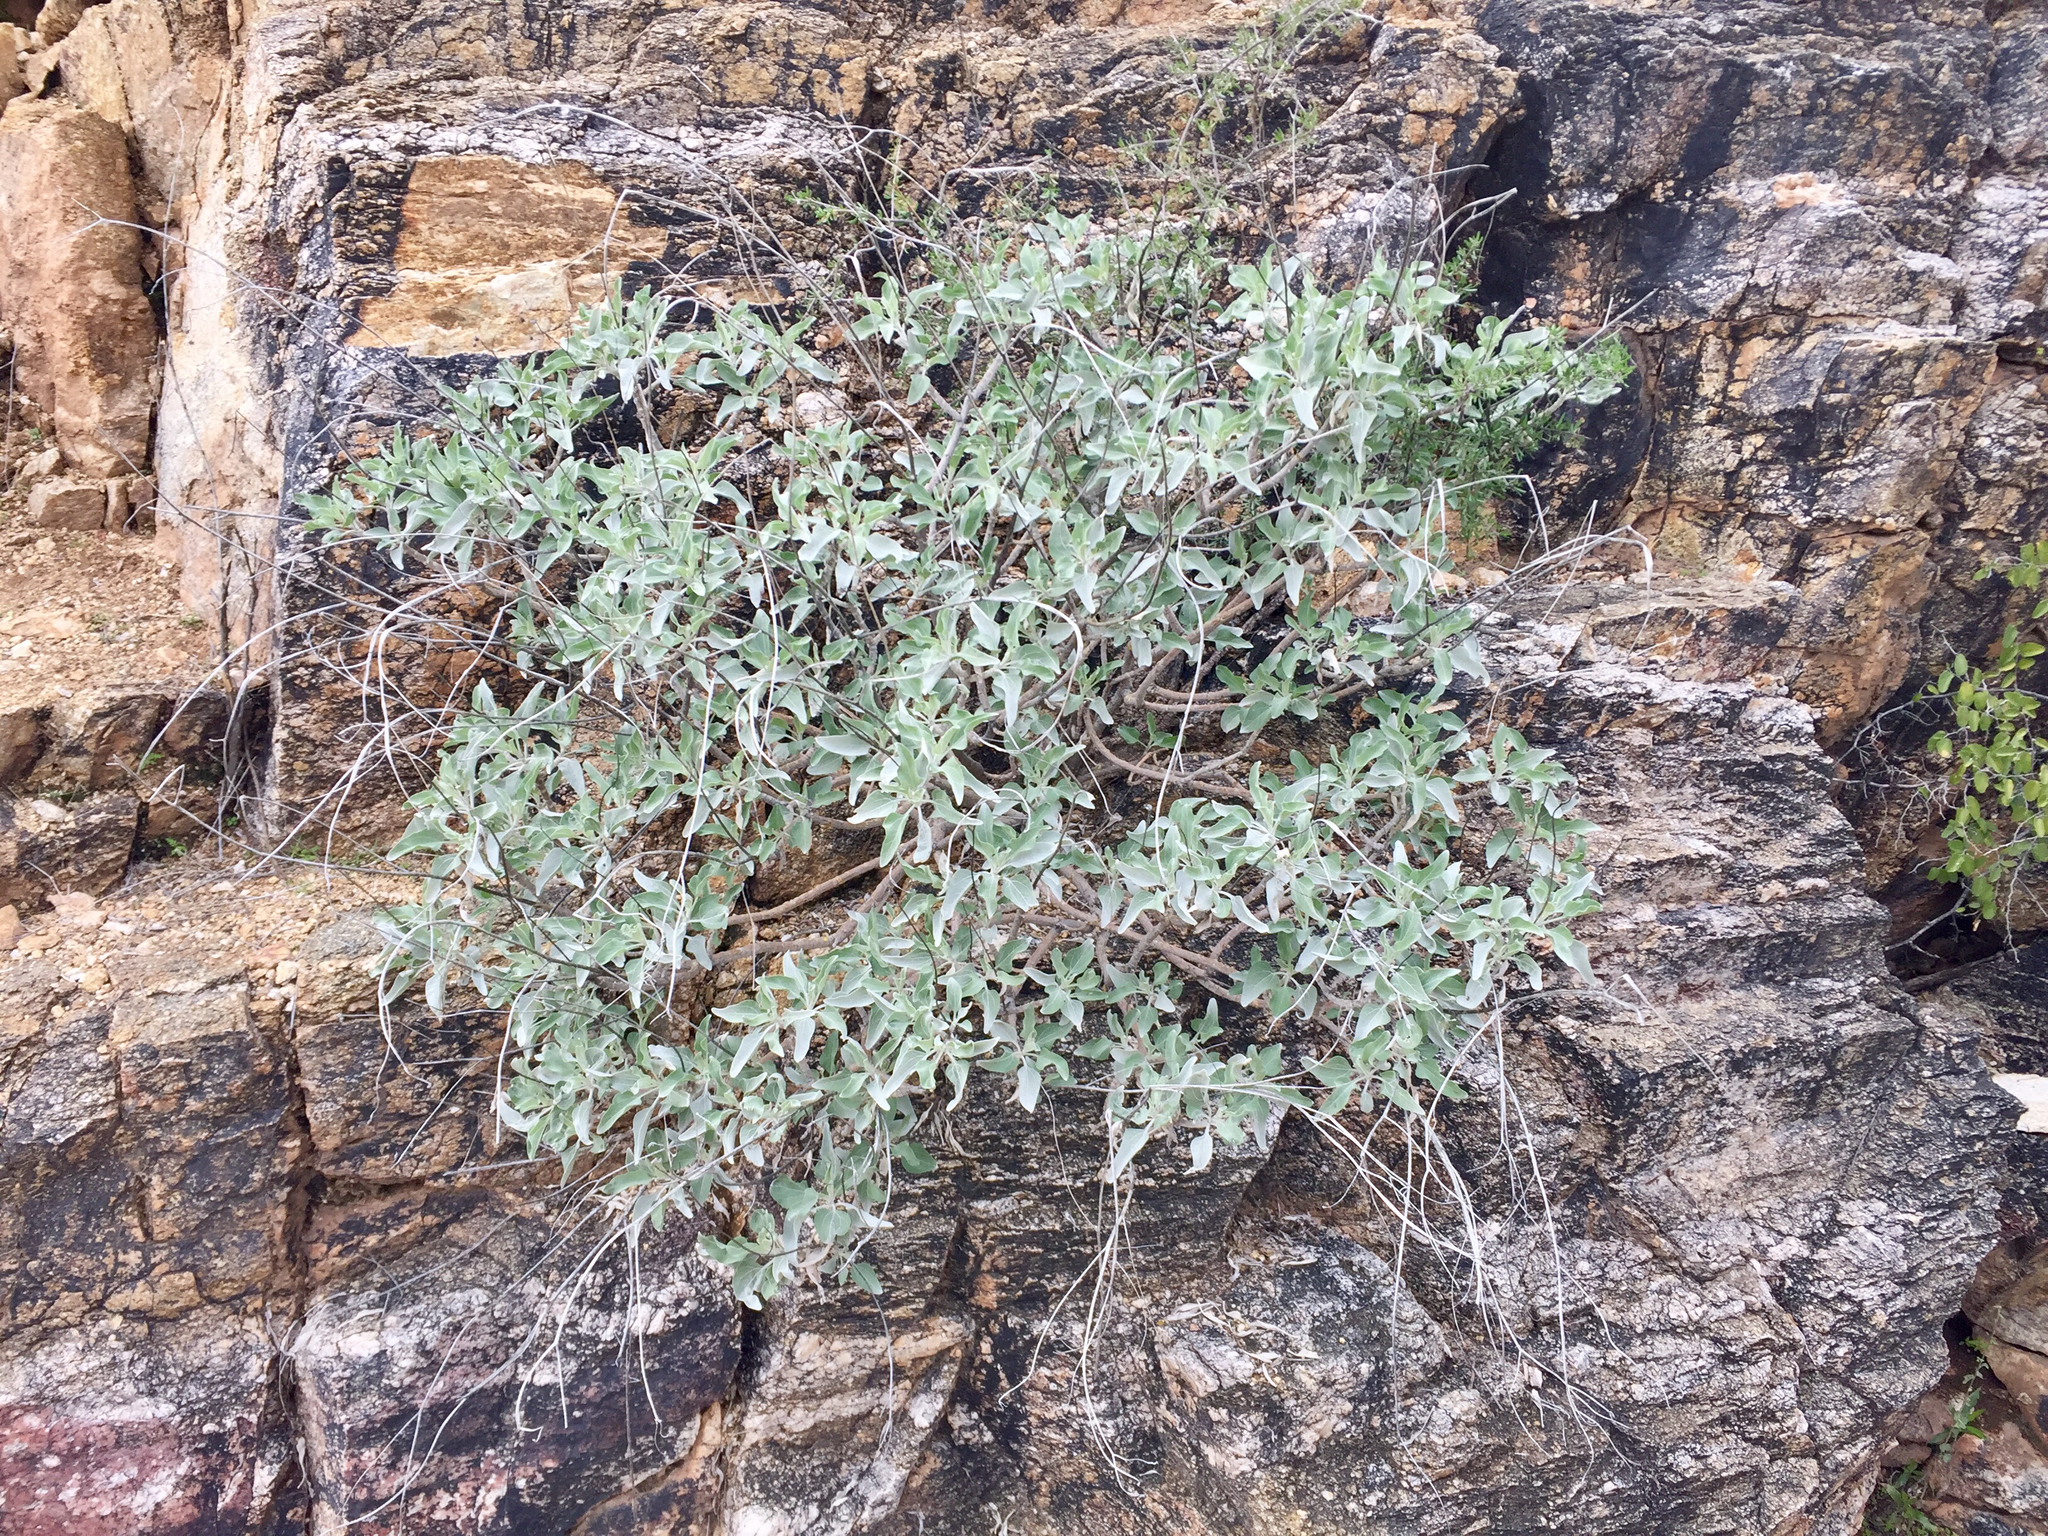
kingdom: Plantae
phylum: Tracheophyta
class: Magnoliopsida
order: Asterales
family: Asteraceae
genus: Encelia
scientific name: Encelia farinosa
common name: Brittlebush
